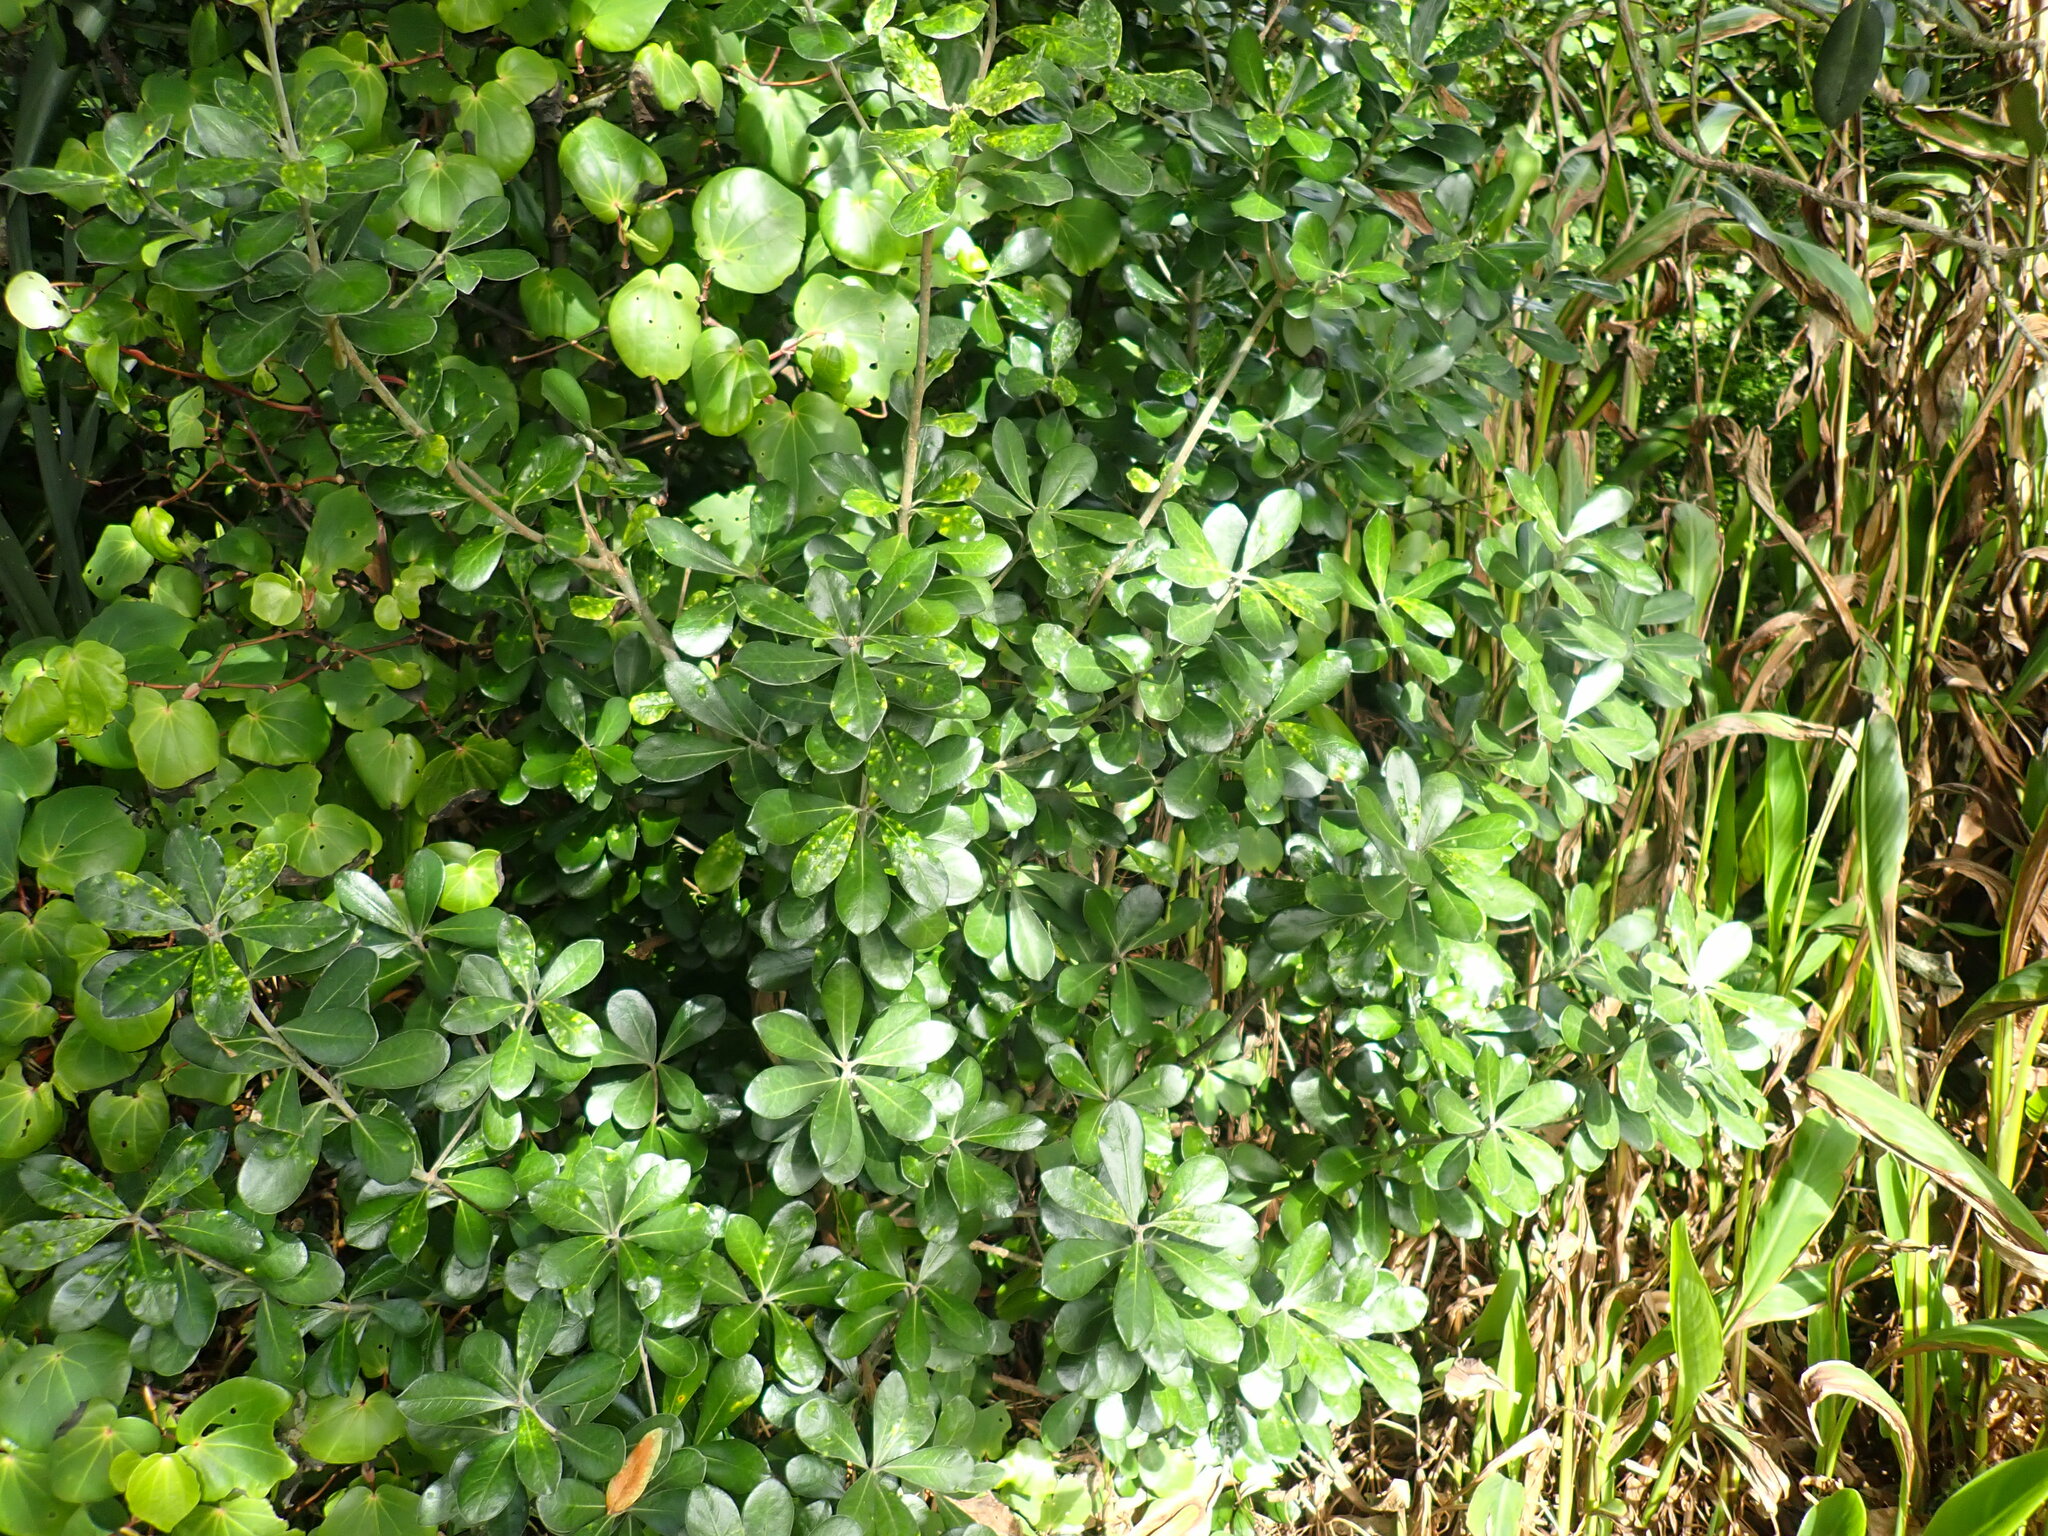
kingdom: Plantae
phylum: Tracheophyta
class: Magnoliopsida
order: Apiales
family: Pittosporaceae
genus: Pittosporum
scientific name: Pittosporum crassifolium
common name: Karo
